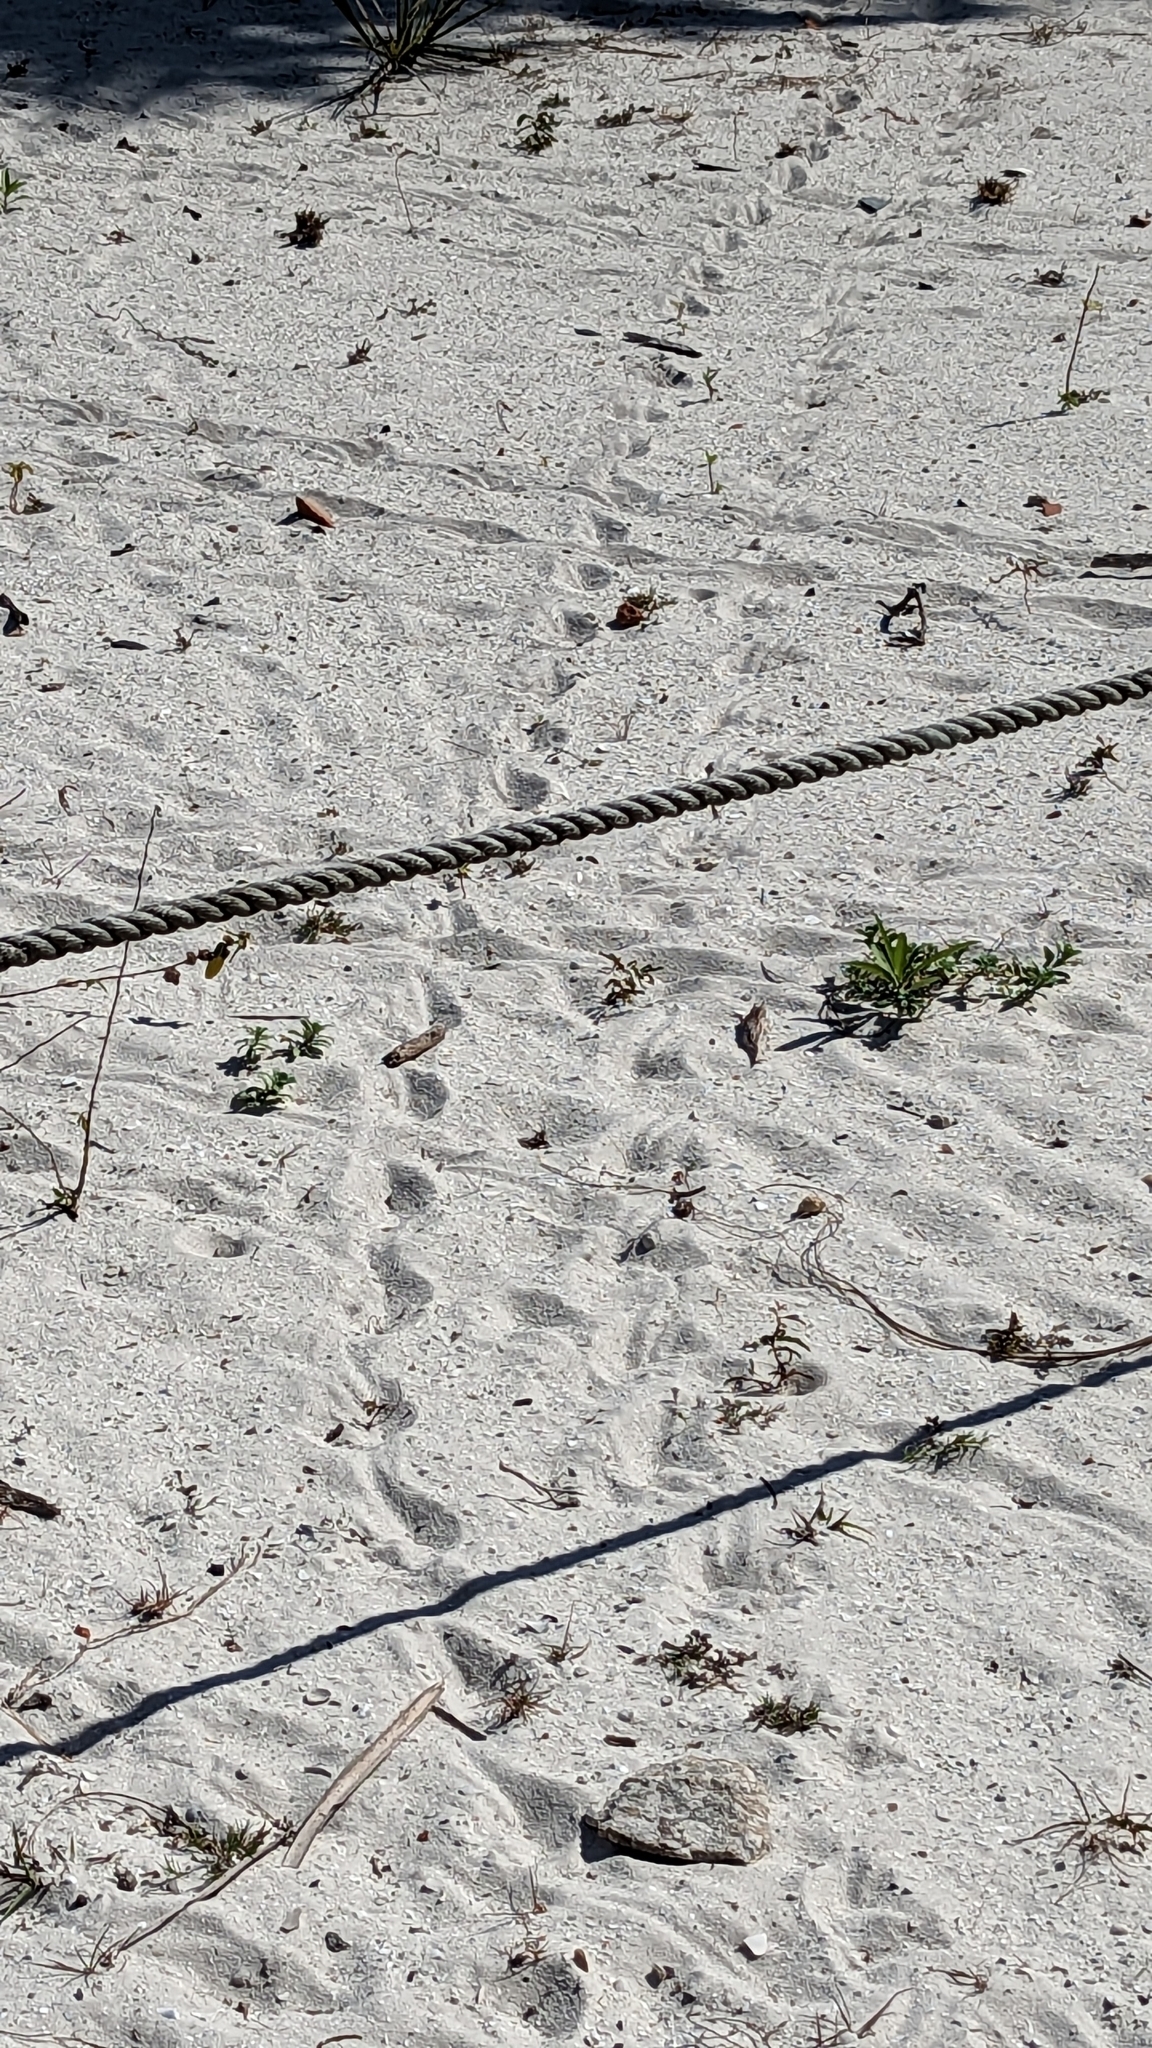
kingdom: Animalia
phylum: Chordata
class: Testudines
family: Testudinidae
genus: Gopherus
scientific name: Gopherus polyphemus
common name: Florida gopher tortoise
